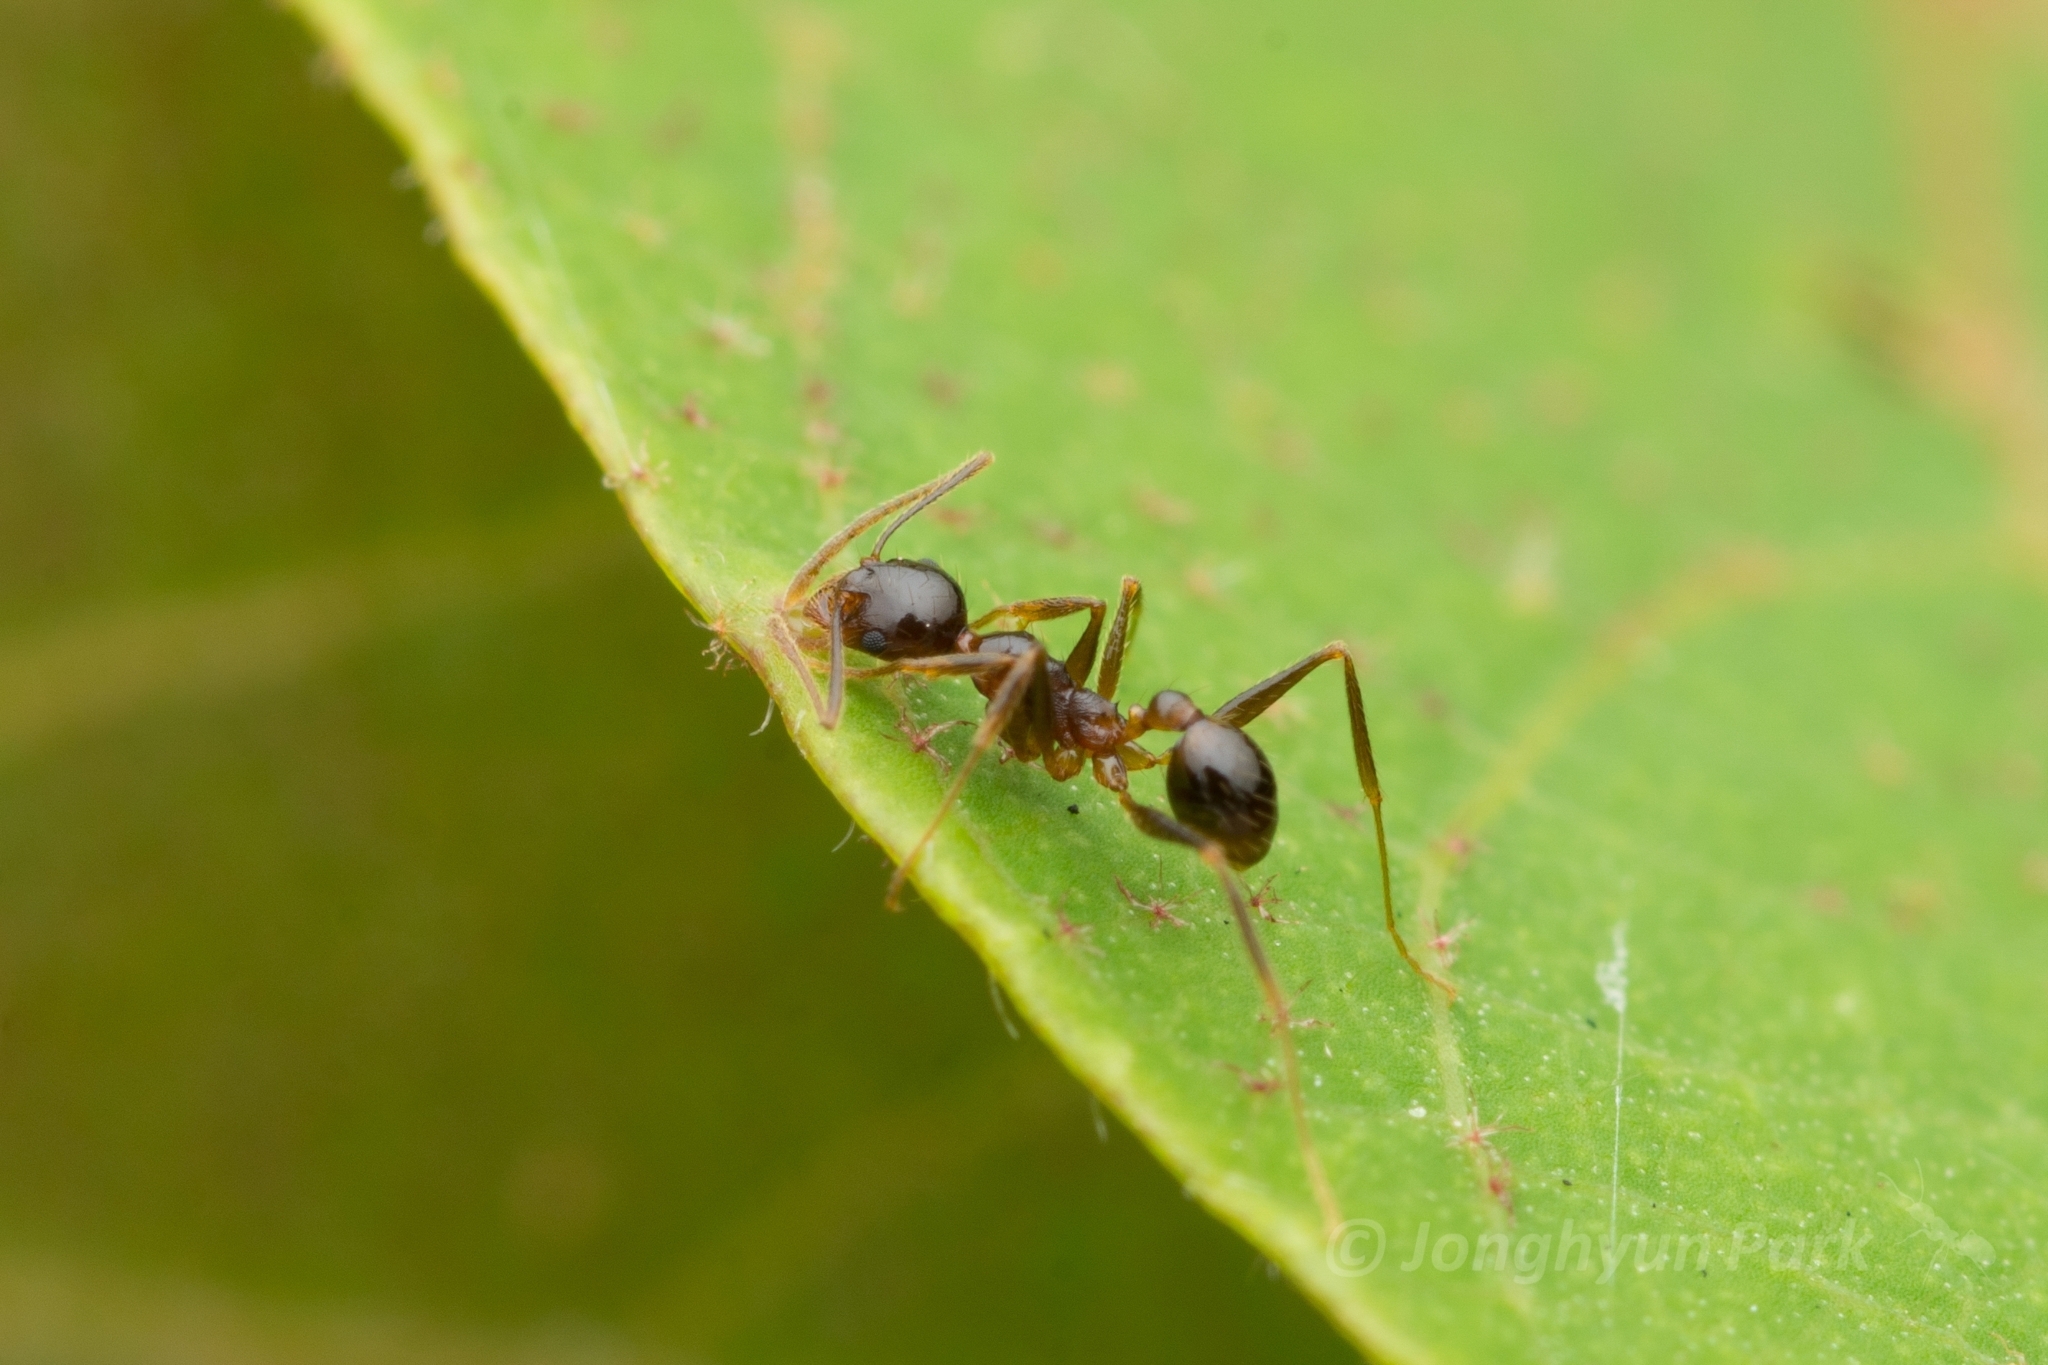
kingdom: Animalia
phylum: Arthropoda
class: Insecta
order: Hymenoptera
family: Formicidae
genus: Pheidole
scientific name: Pheidole noda
